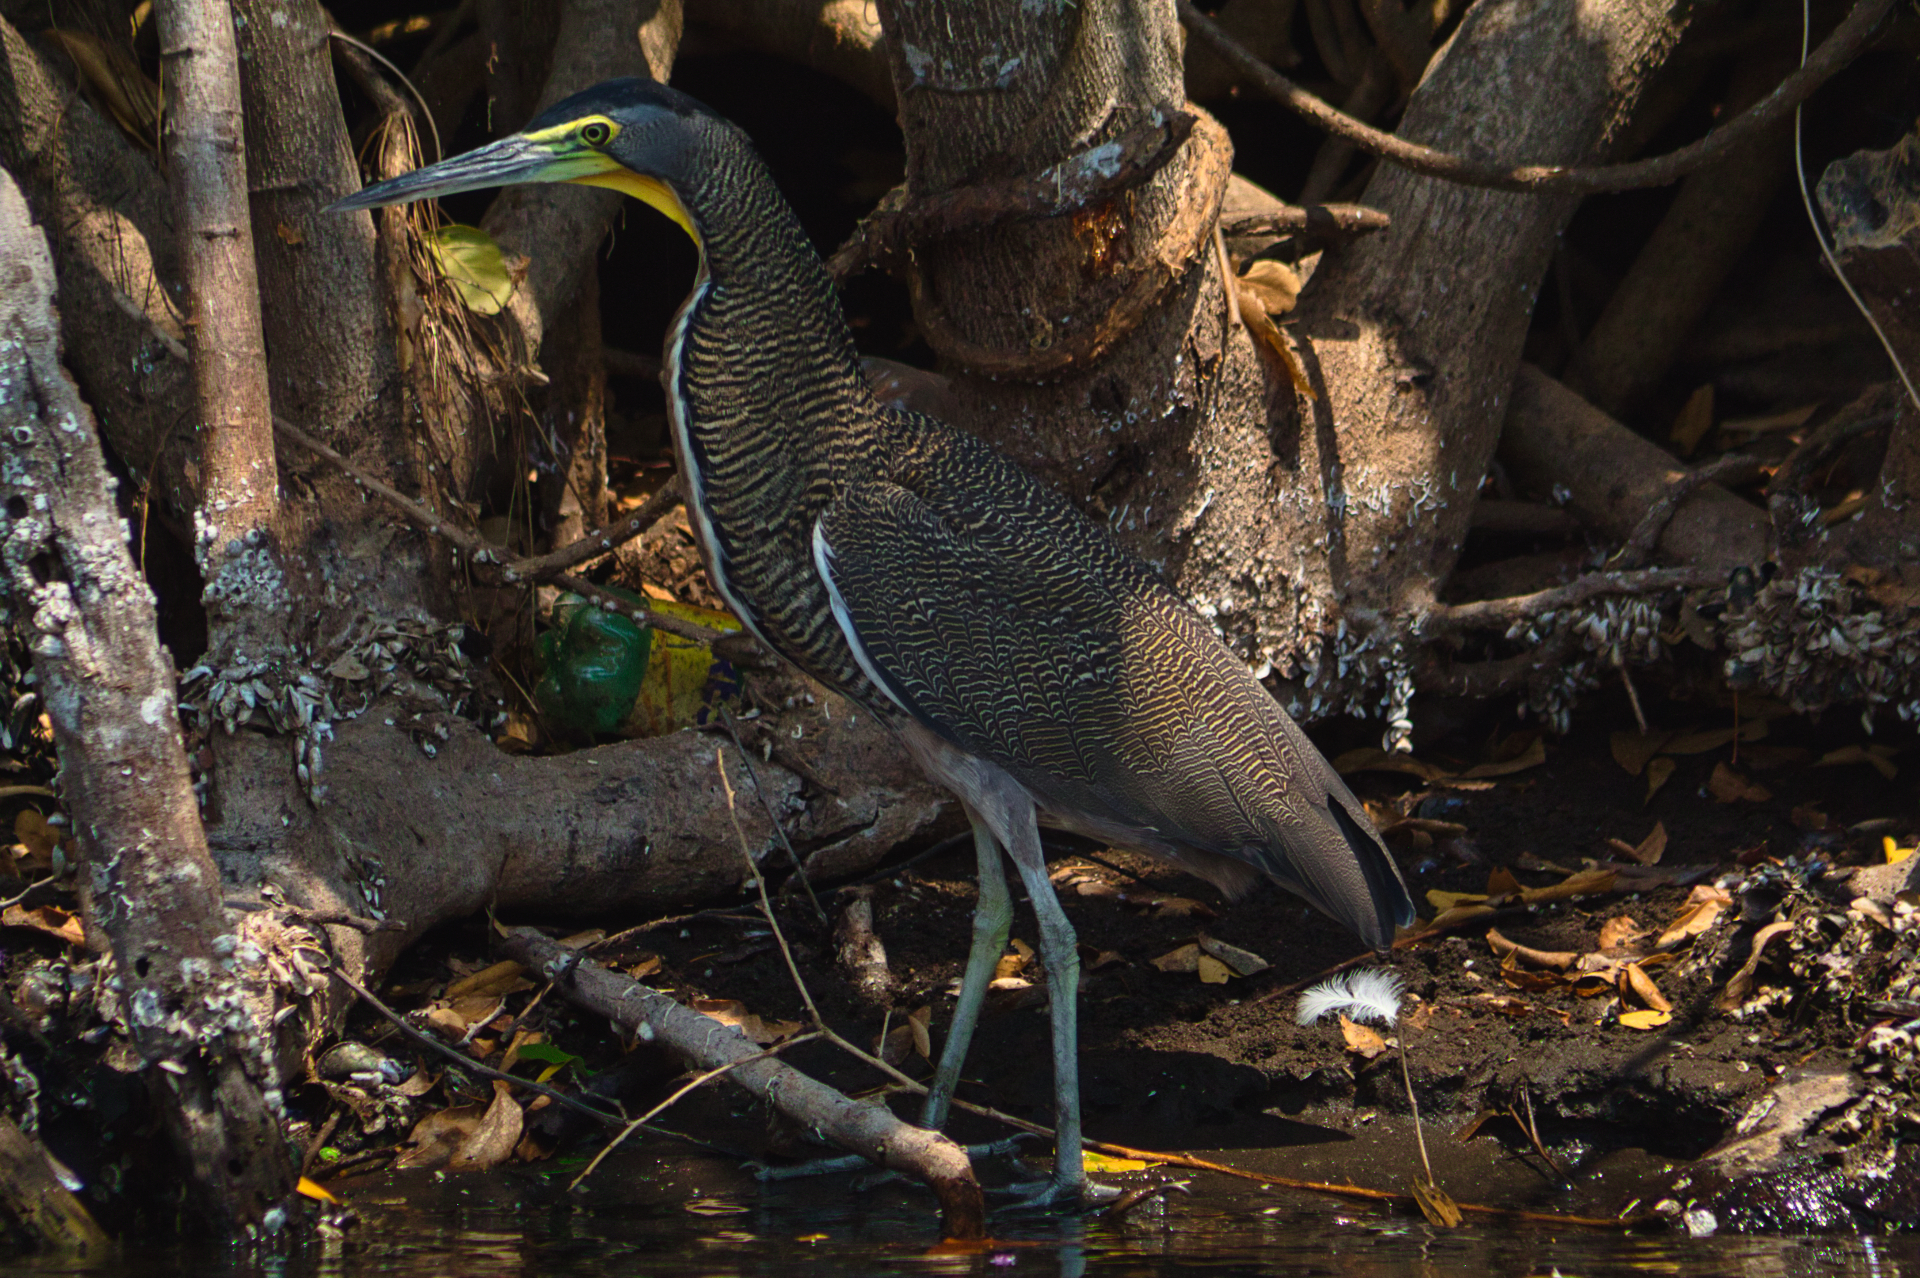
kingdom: Animalia
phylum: Chordata
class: Aves
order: Pelecaniformes
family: Ardeidae
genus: Tigrisoma
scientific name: Tigrisoma mexicanum
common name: Bare-throated tiger-heron
